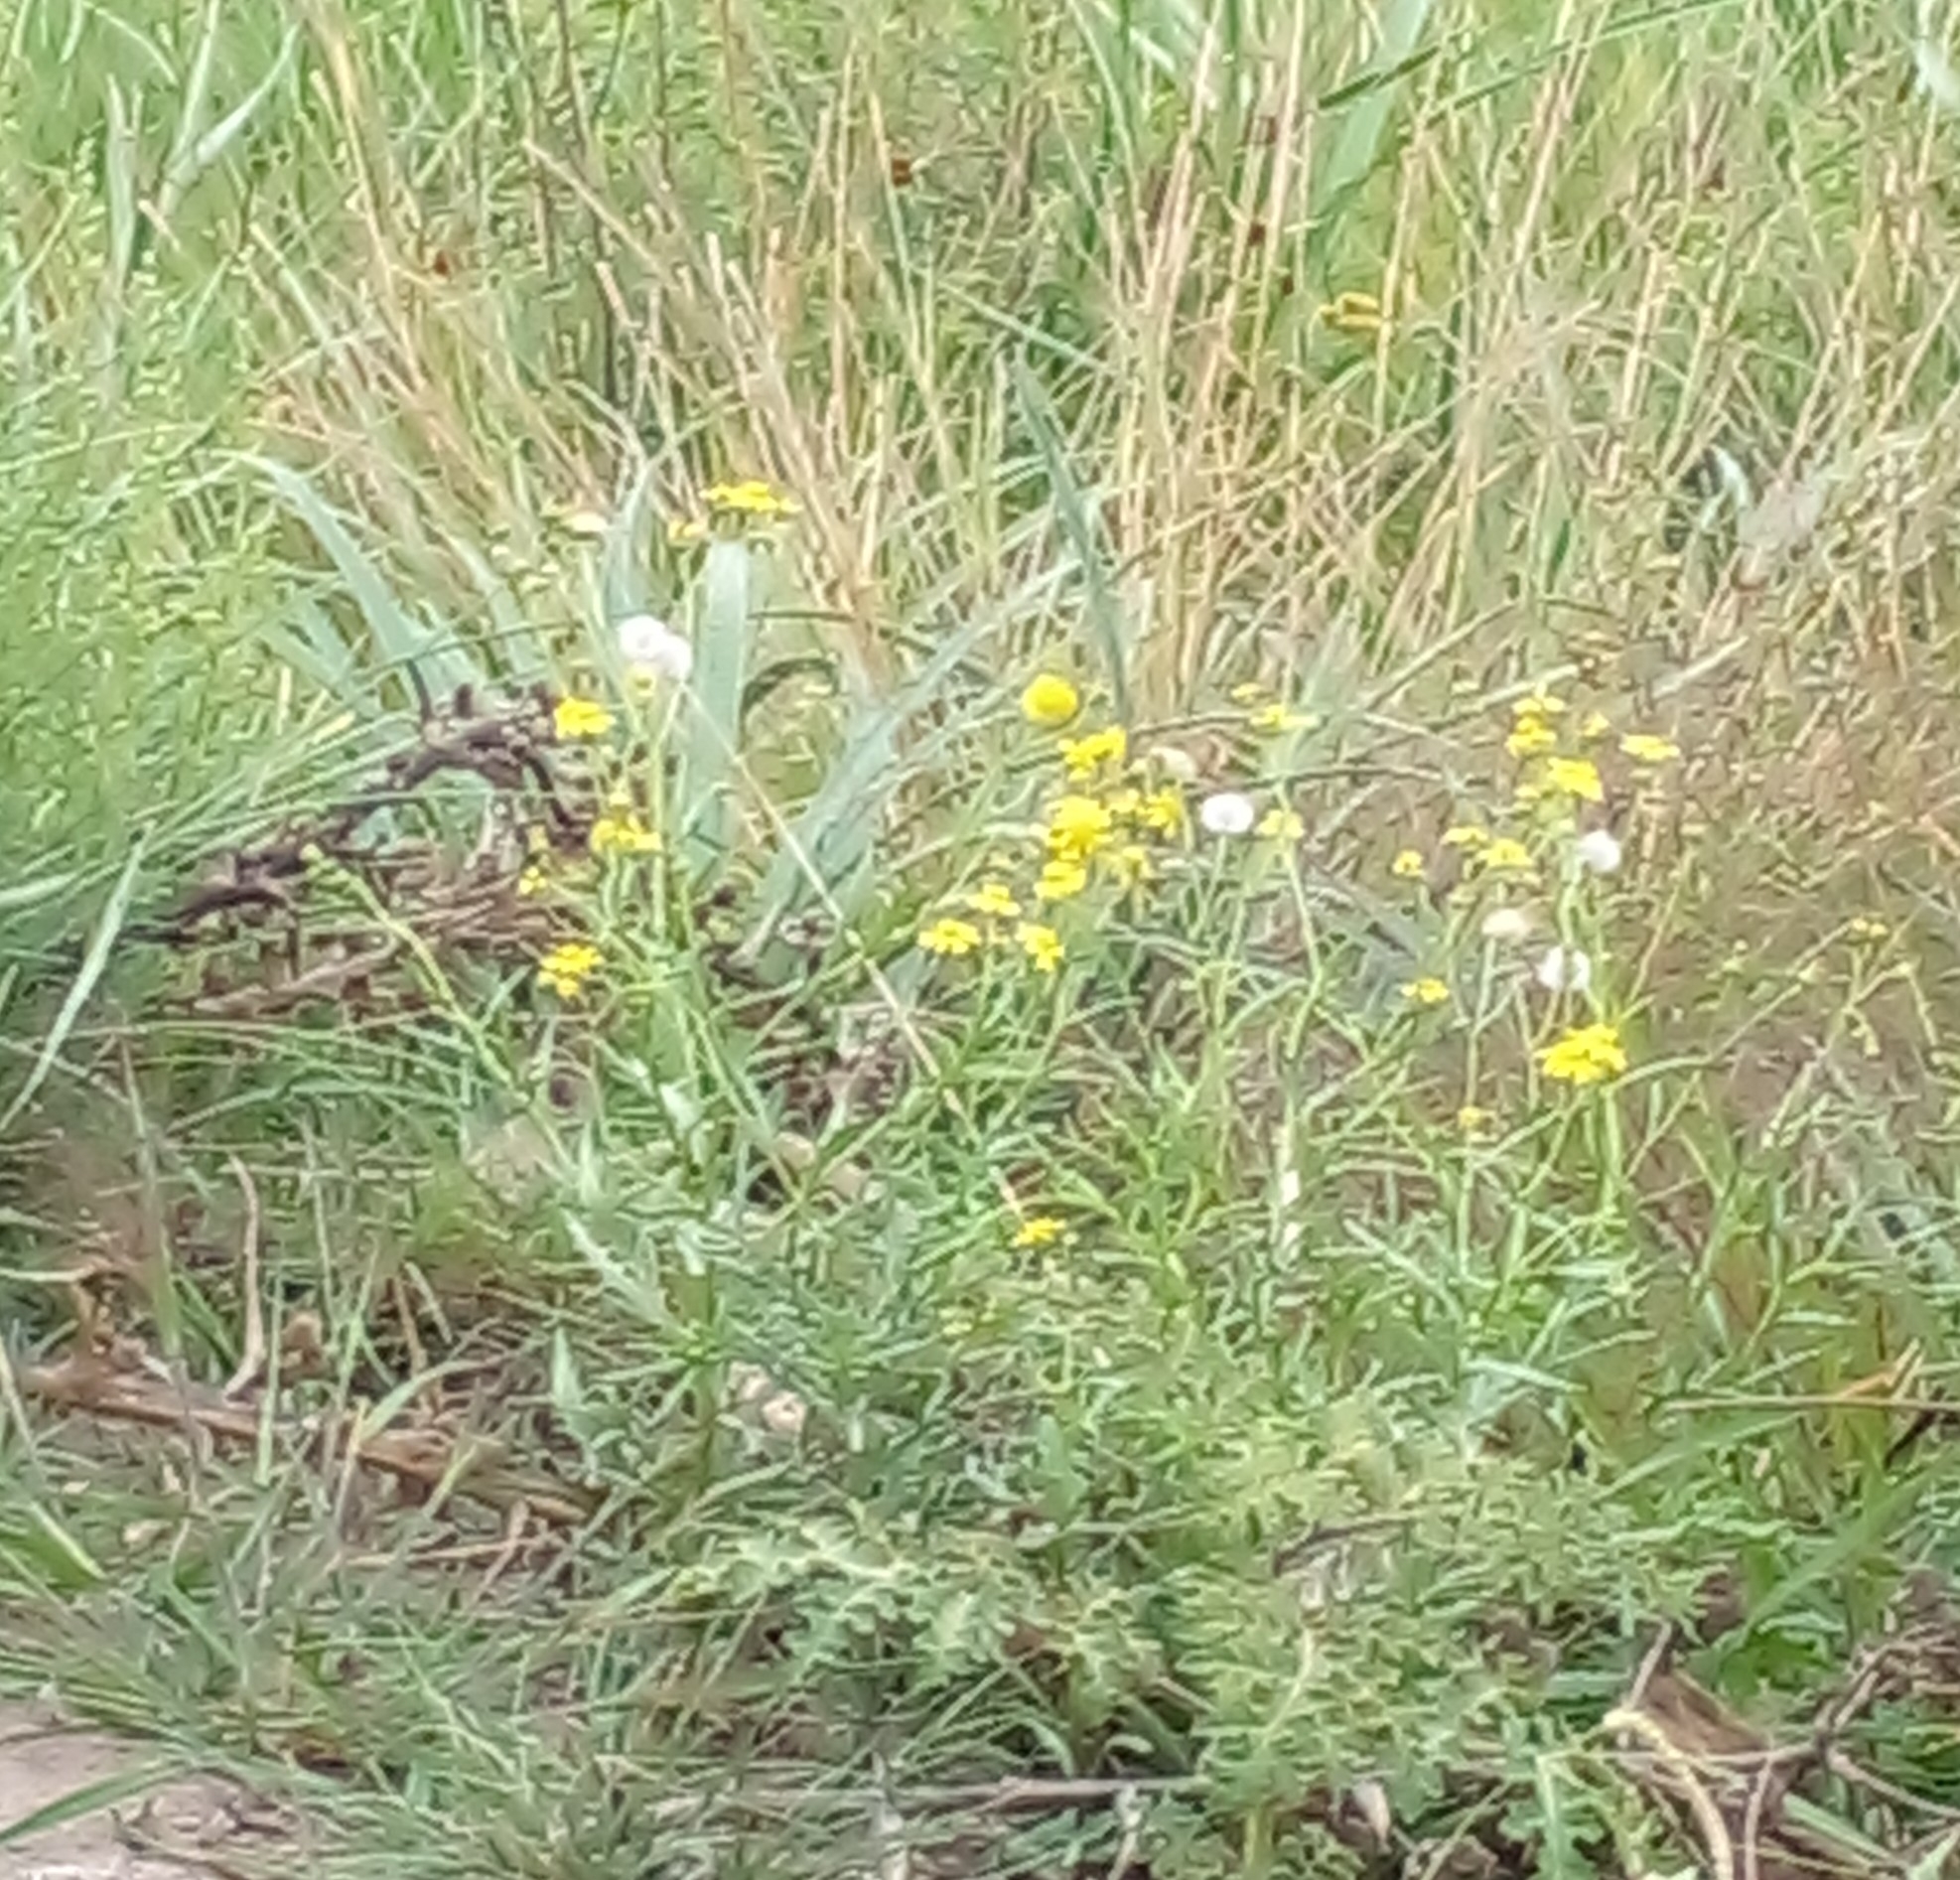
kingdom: Plantae
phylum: Tracheophyta
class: Magnoliopsida
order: Asterales
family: Asteraceae
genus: Senecio
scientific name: Senecio madagascariensis
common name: Madagascar ragwort
